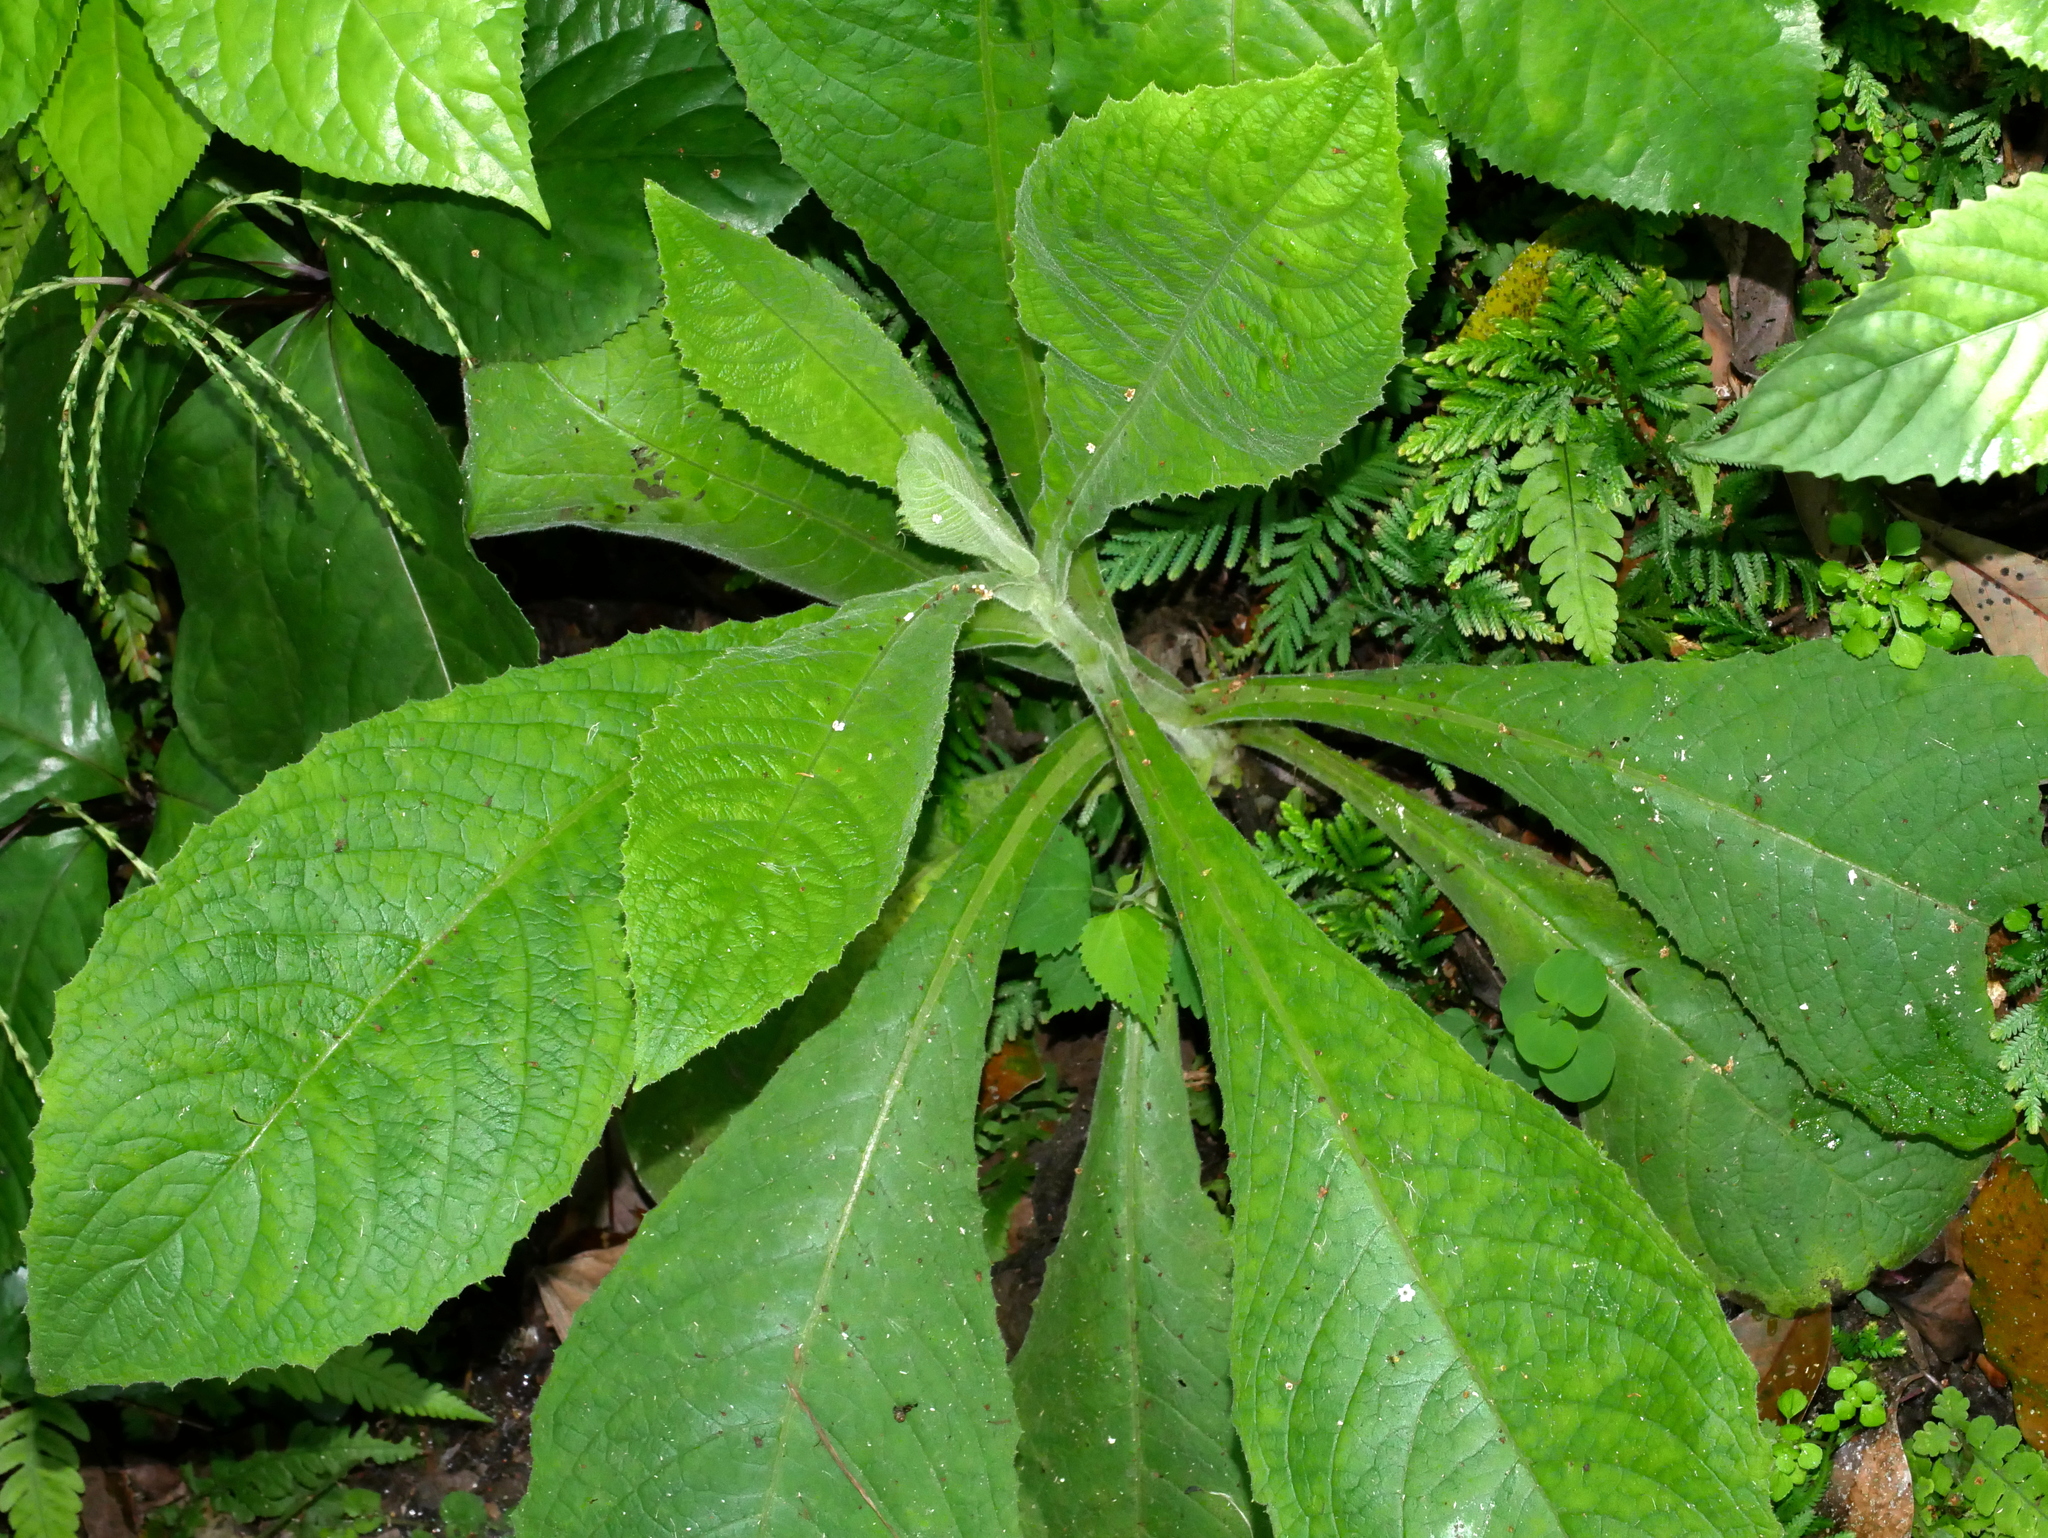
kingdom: Plantae
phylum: Tracheophyta
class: Magnoliopsida
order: Asterales
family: Asteraceae
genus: Blumea
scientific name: Blumea aromatica
